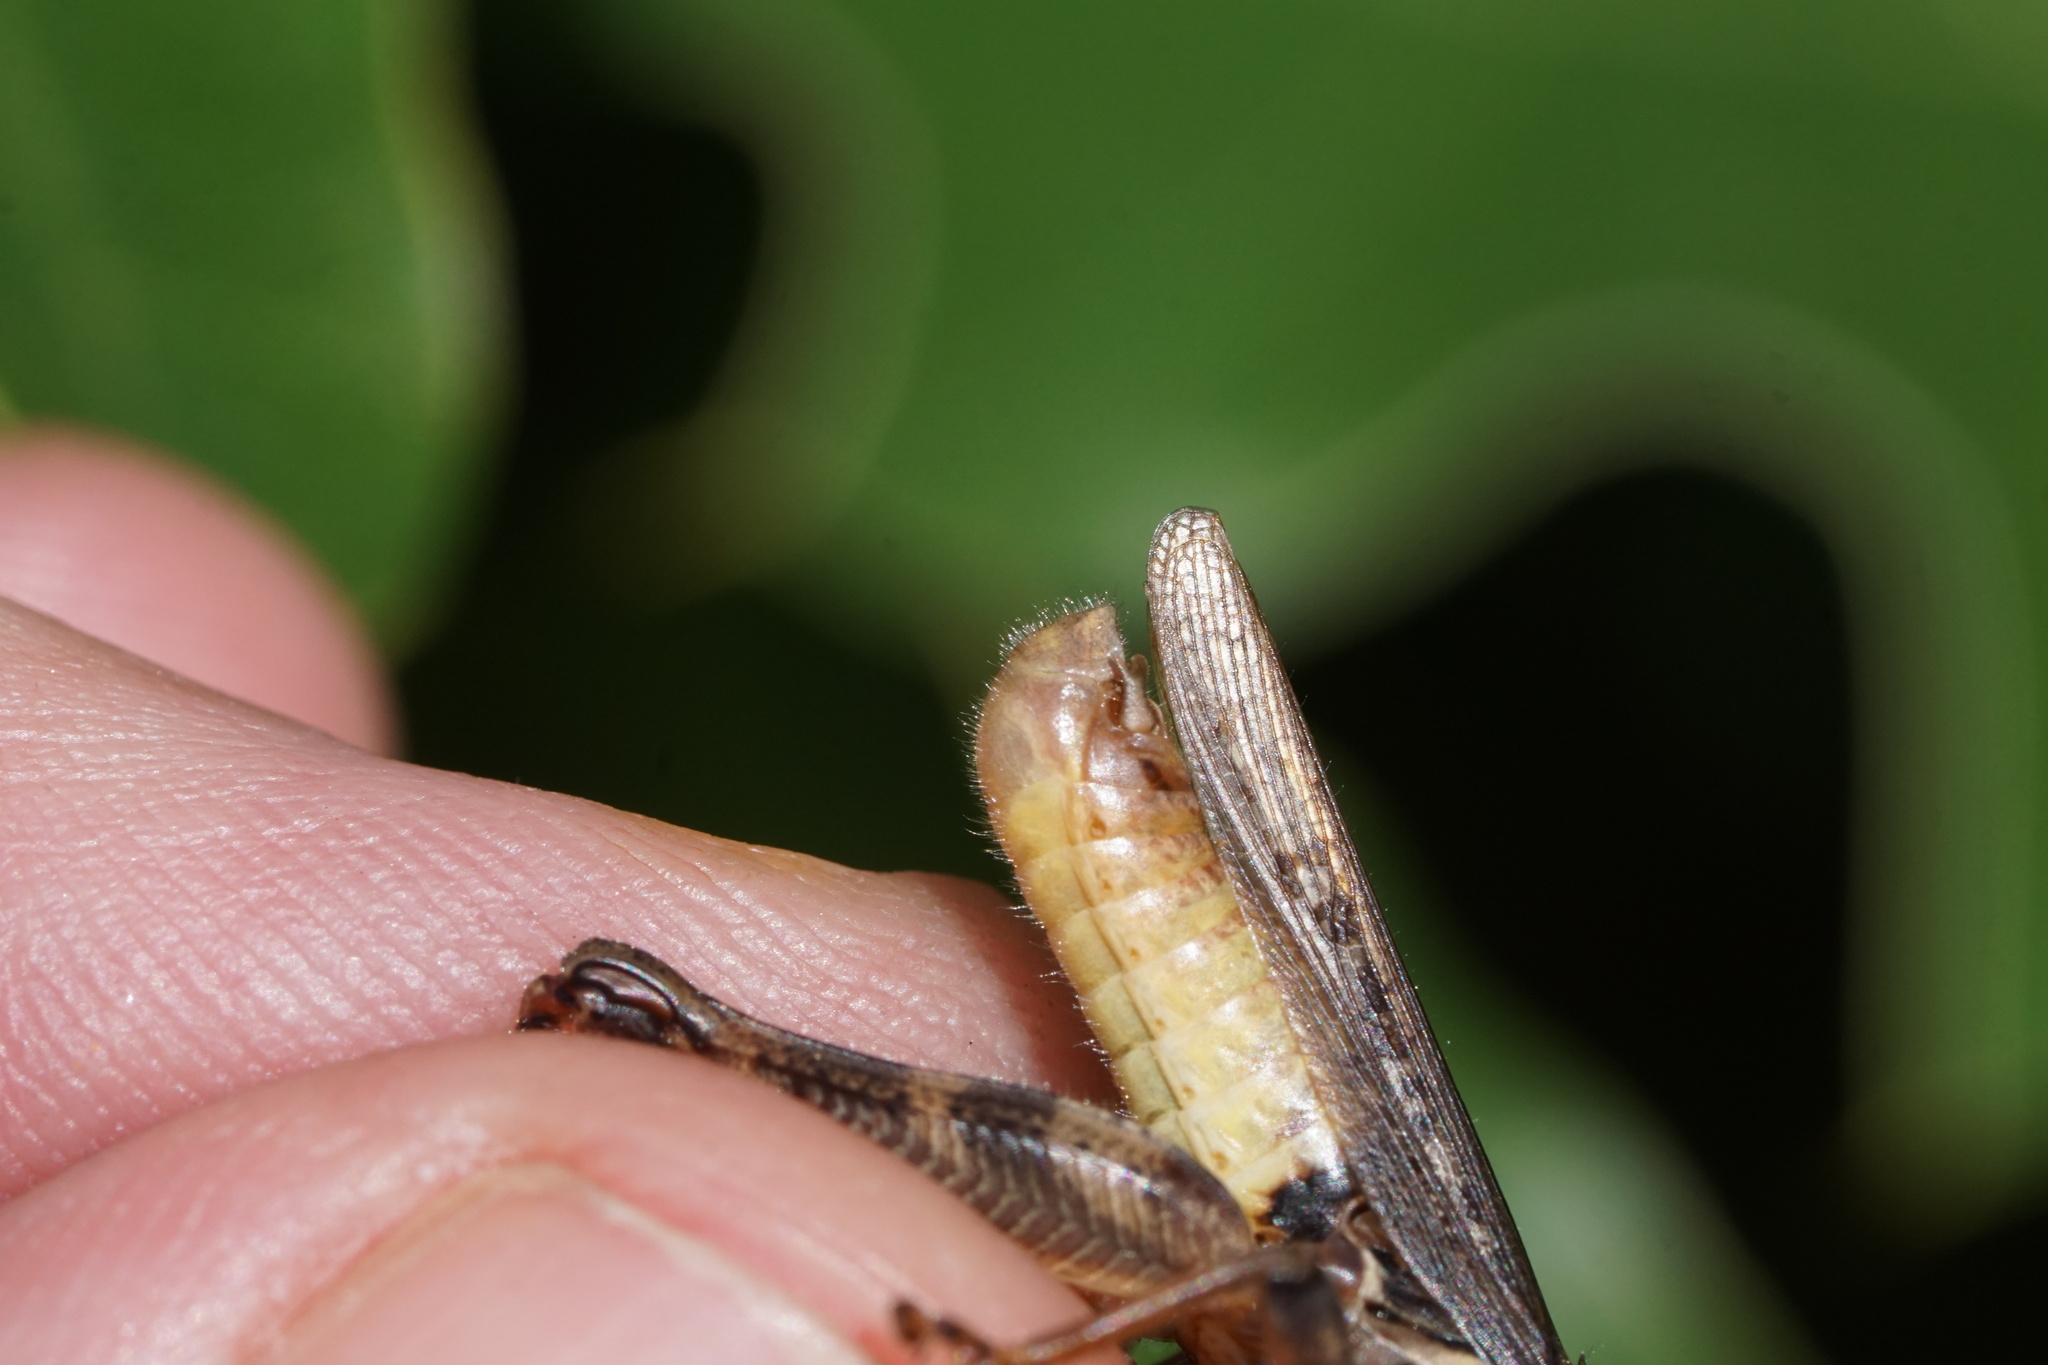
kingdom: Animalia
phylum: Arthropoda
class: Insecta
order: Orthoptera
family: Acrididae
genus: Melanoplus
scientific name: Melanoplus keeleri
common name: Keeler grasshopper
